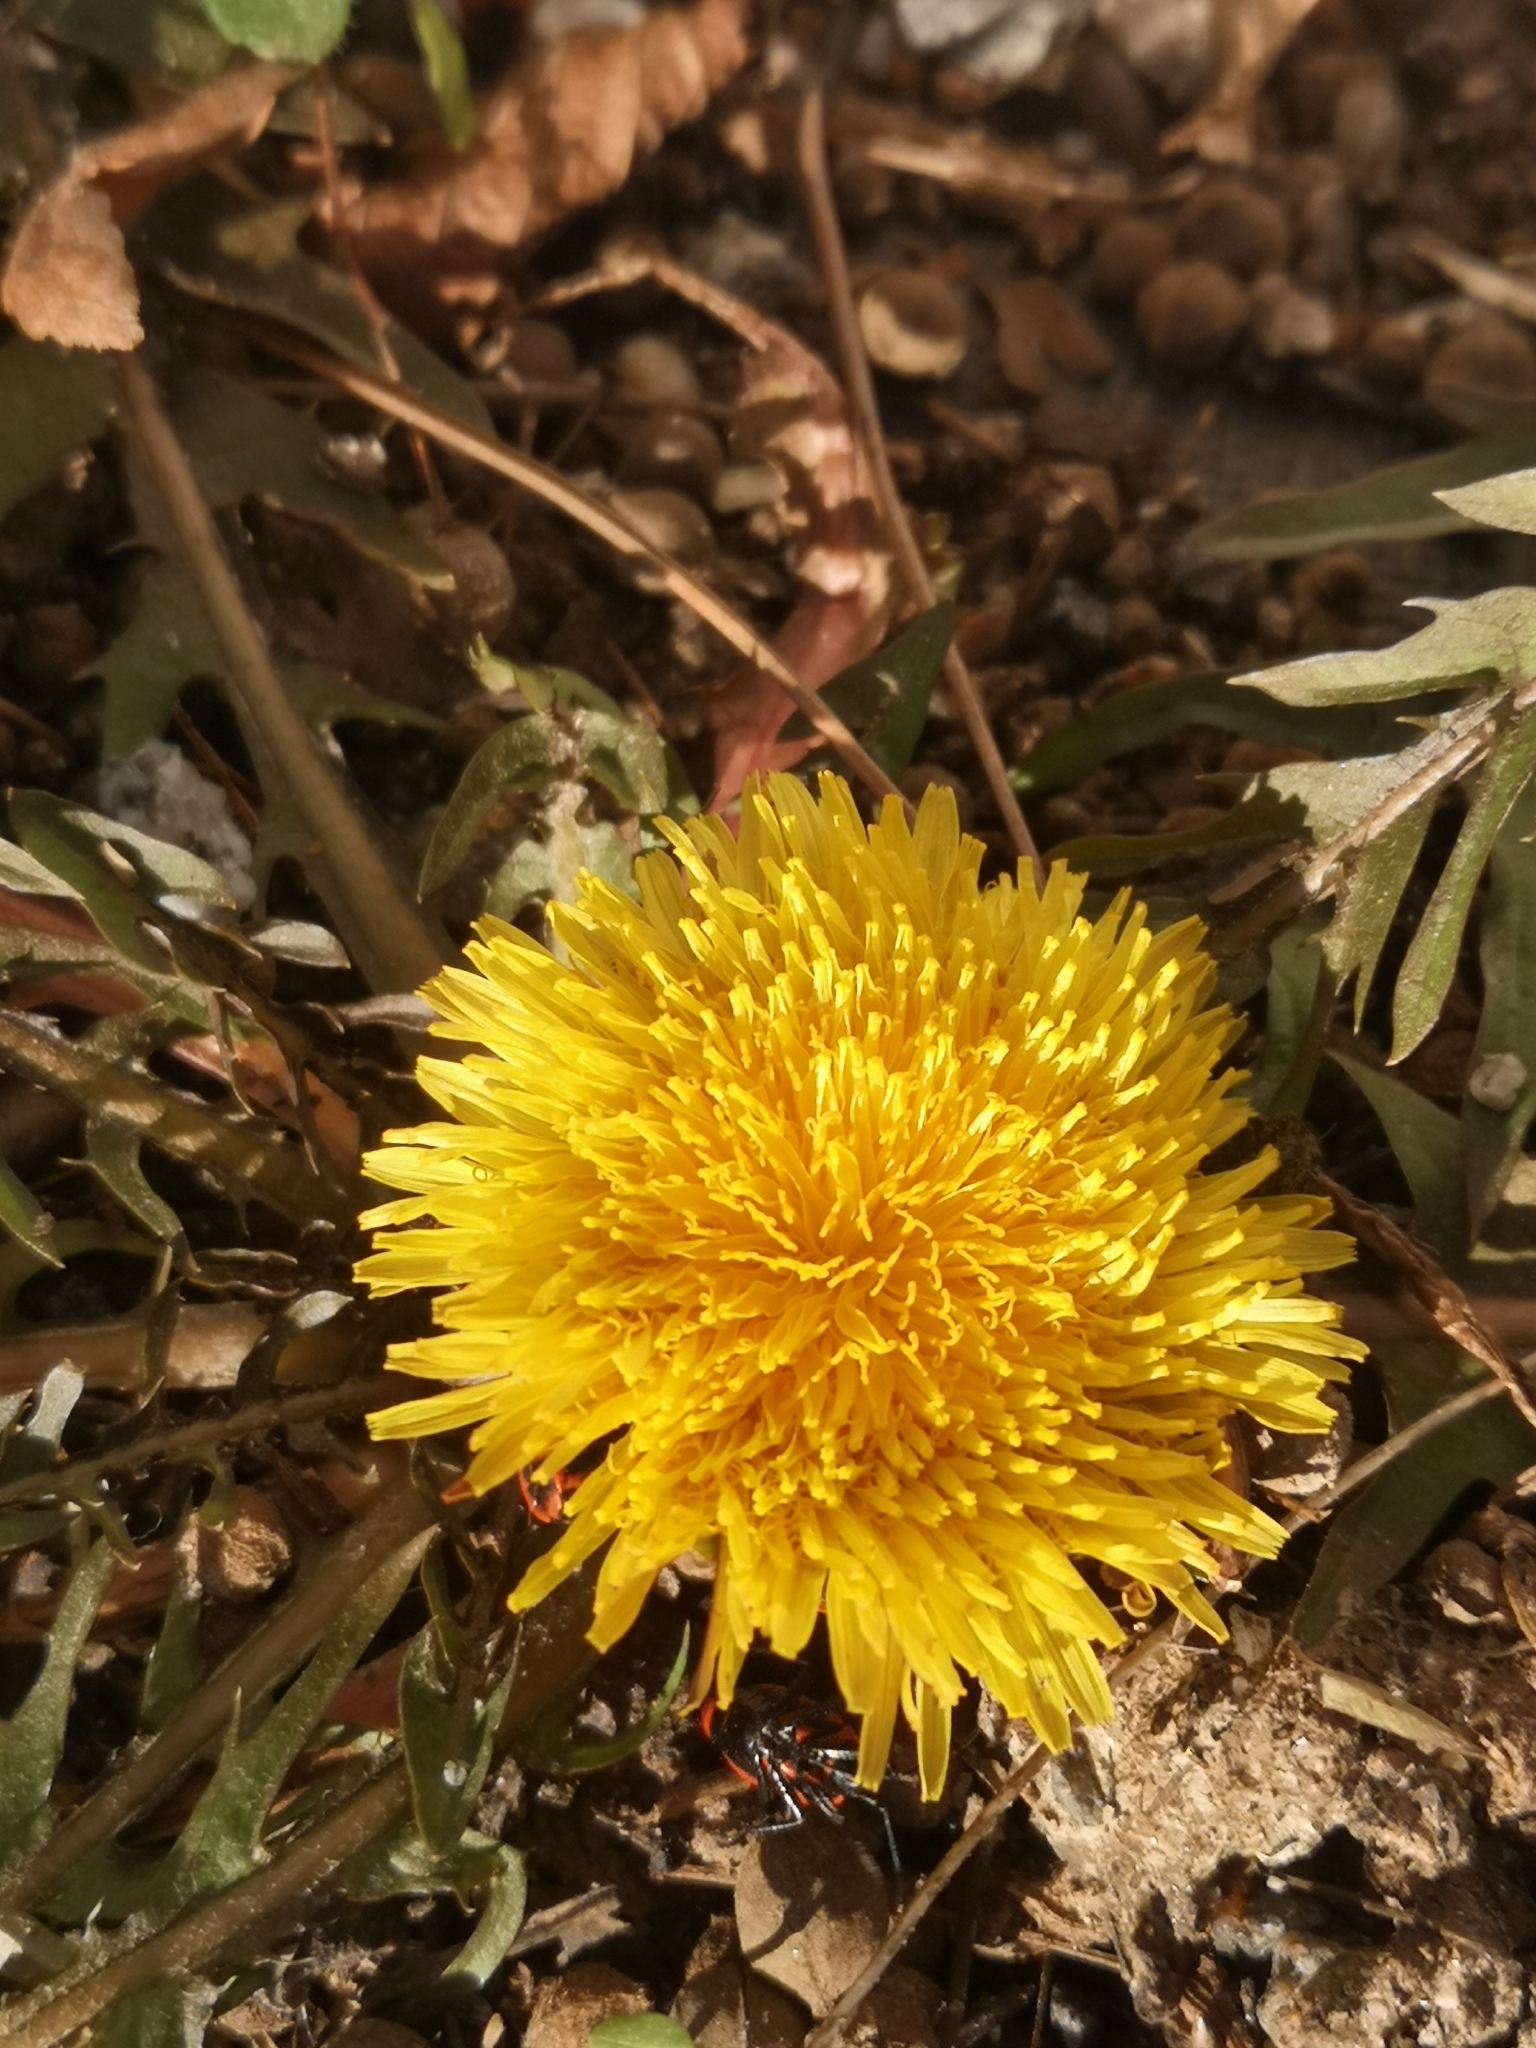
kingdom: Plantae
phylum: Tracheophyta
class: Magnoliopsida
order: Asterales
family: Asteraceae
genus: Taraxacum
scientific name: Taraxacum
